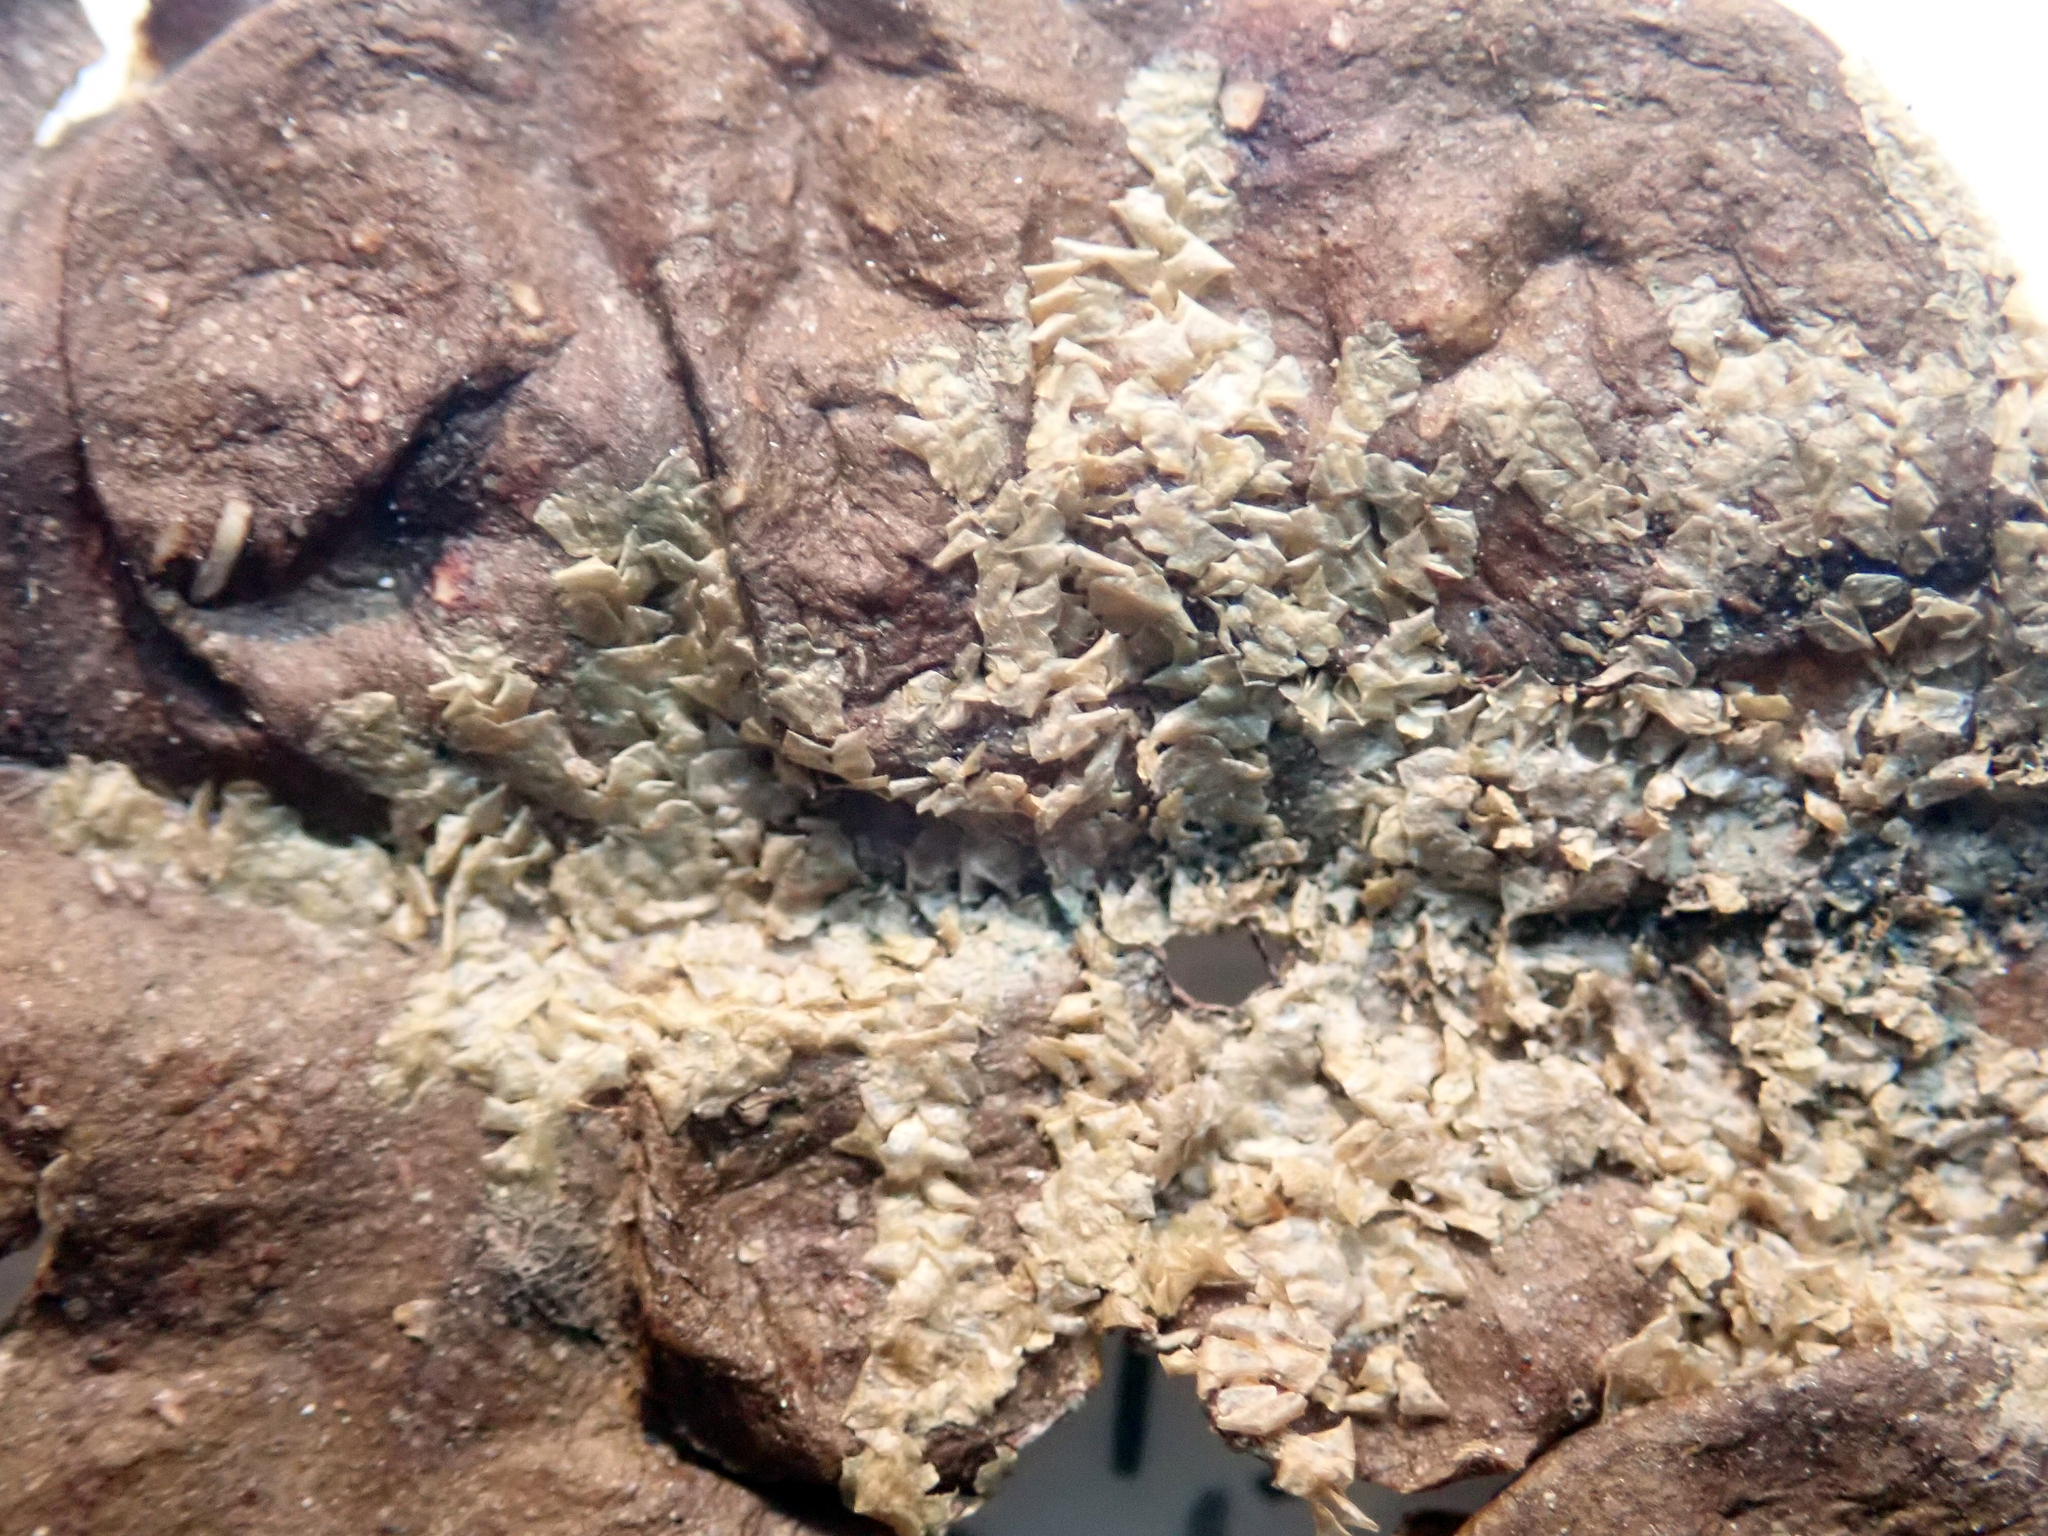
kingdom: Plantae
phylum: Marchantiophyta
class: Jungermanniopsida
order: Porellales
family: Lejeuneaceae
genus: Cololejeunea
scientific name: Cololejeunea laevigata
